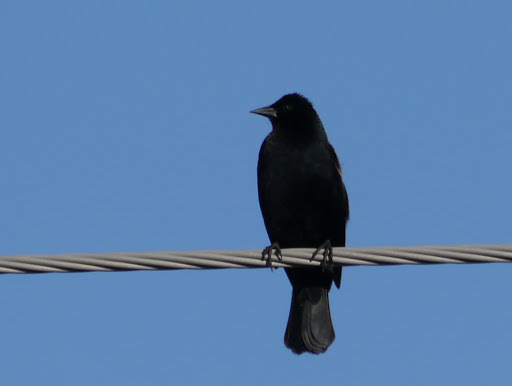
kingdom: Animalia
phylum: Chordata
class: Aves
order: Passeriformes
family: Icteridae
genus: Agelaius
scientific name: Agelaius phoeniceus
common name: Red-winged blackbird
